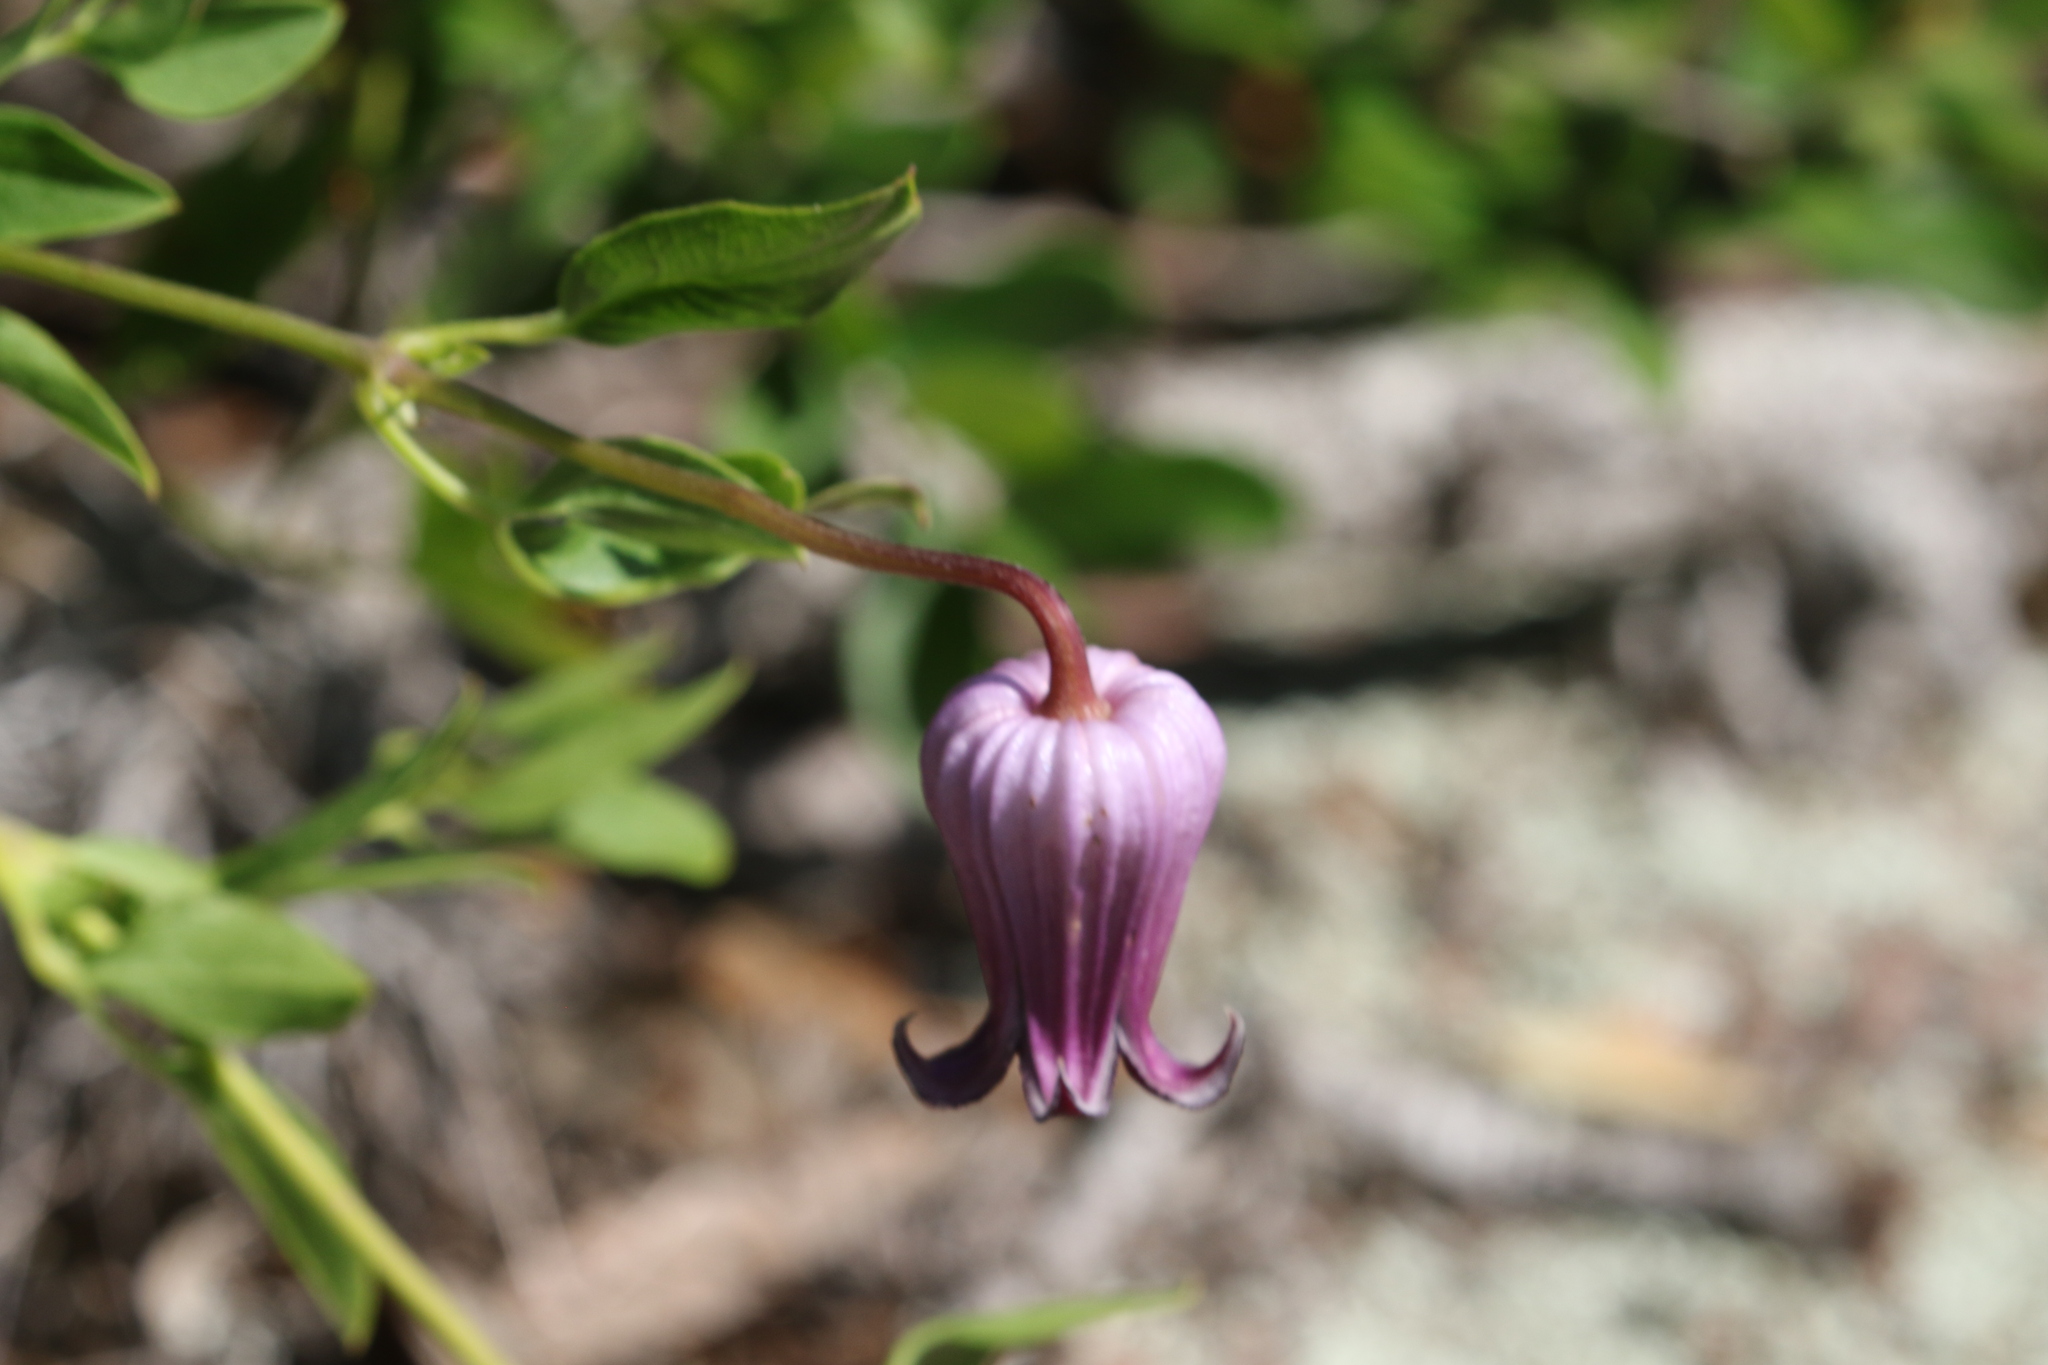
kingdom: Plantae
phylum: Tracheophyta
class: Magnoliopsida
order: Ranunculales
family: Ranunculaceae
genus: Clematis
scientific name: Clematis pitcheri
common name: Bellflower clematis
